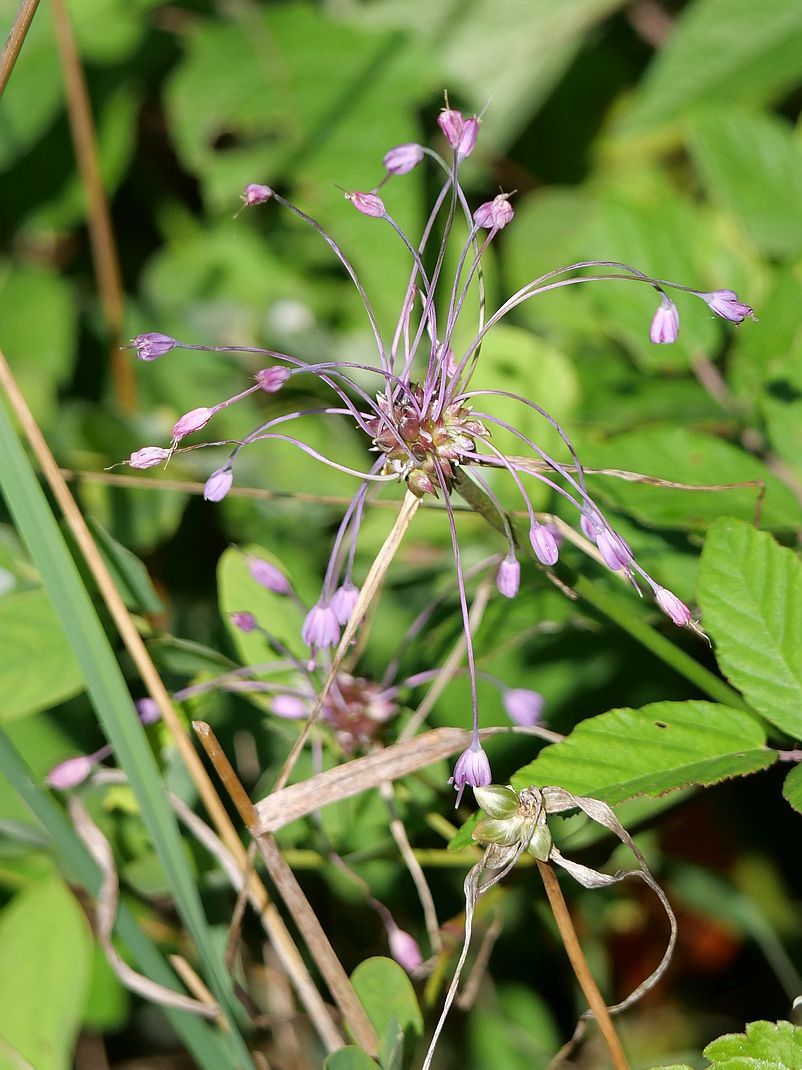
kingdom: Plantae
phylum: Tracheophyta
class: Liliopsida
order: Asparagales
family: Amaryllidaceae
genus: Allium
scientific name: Allium carinatum
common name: Keeled garlic
